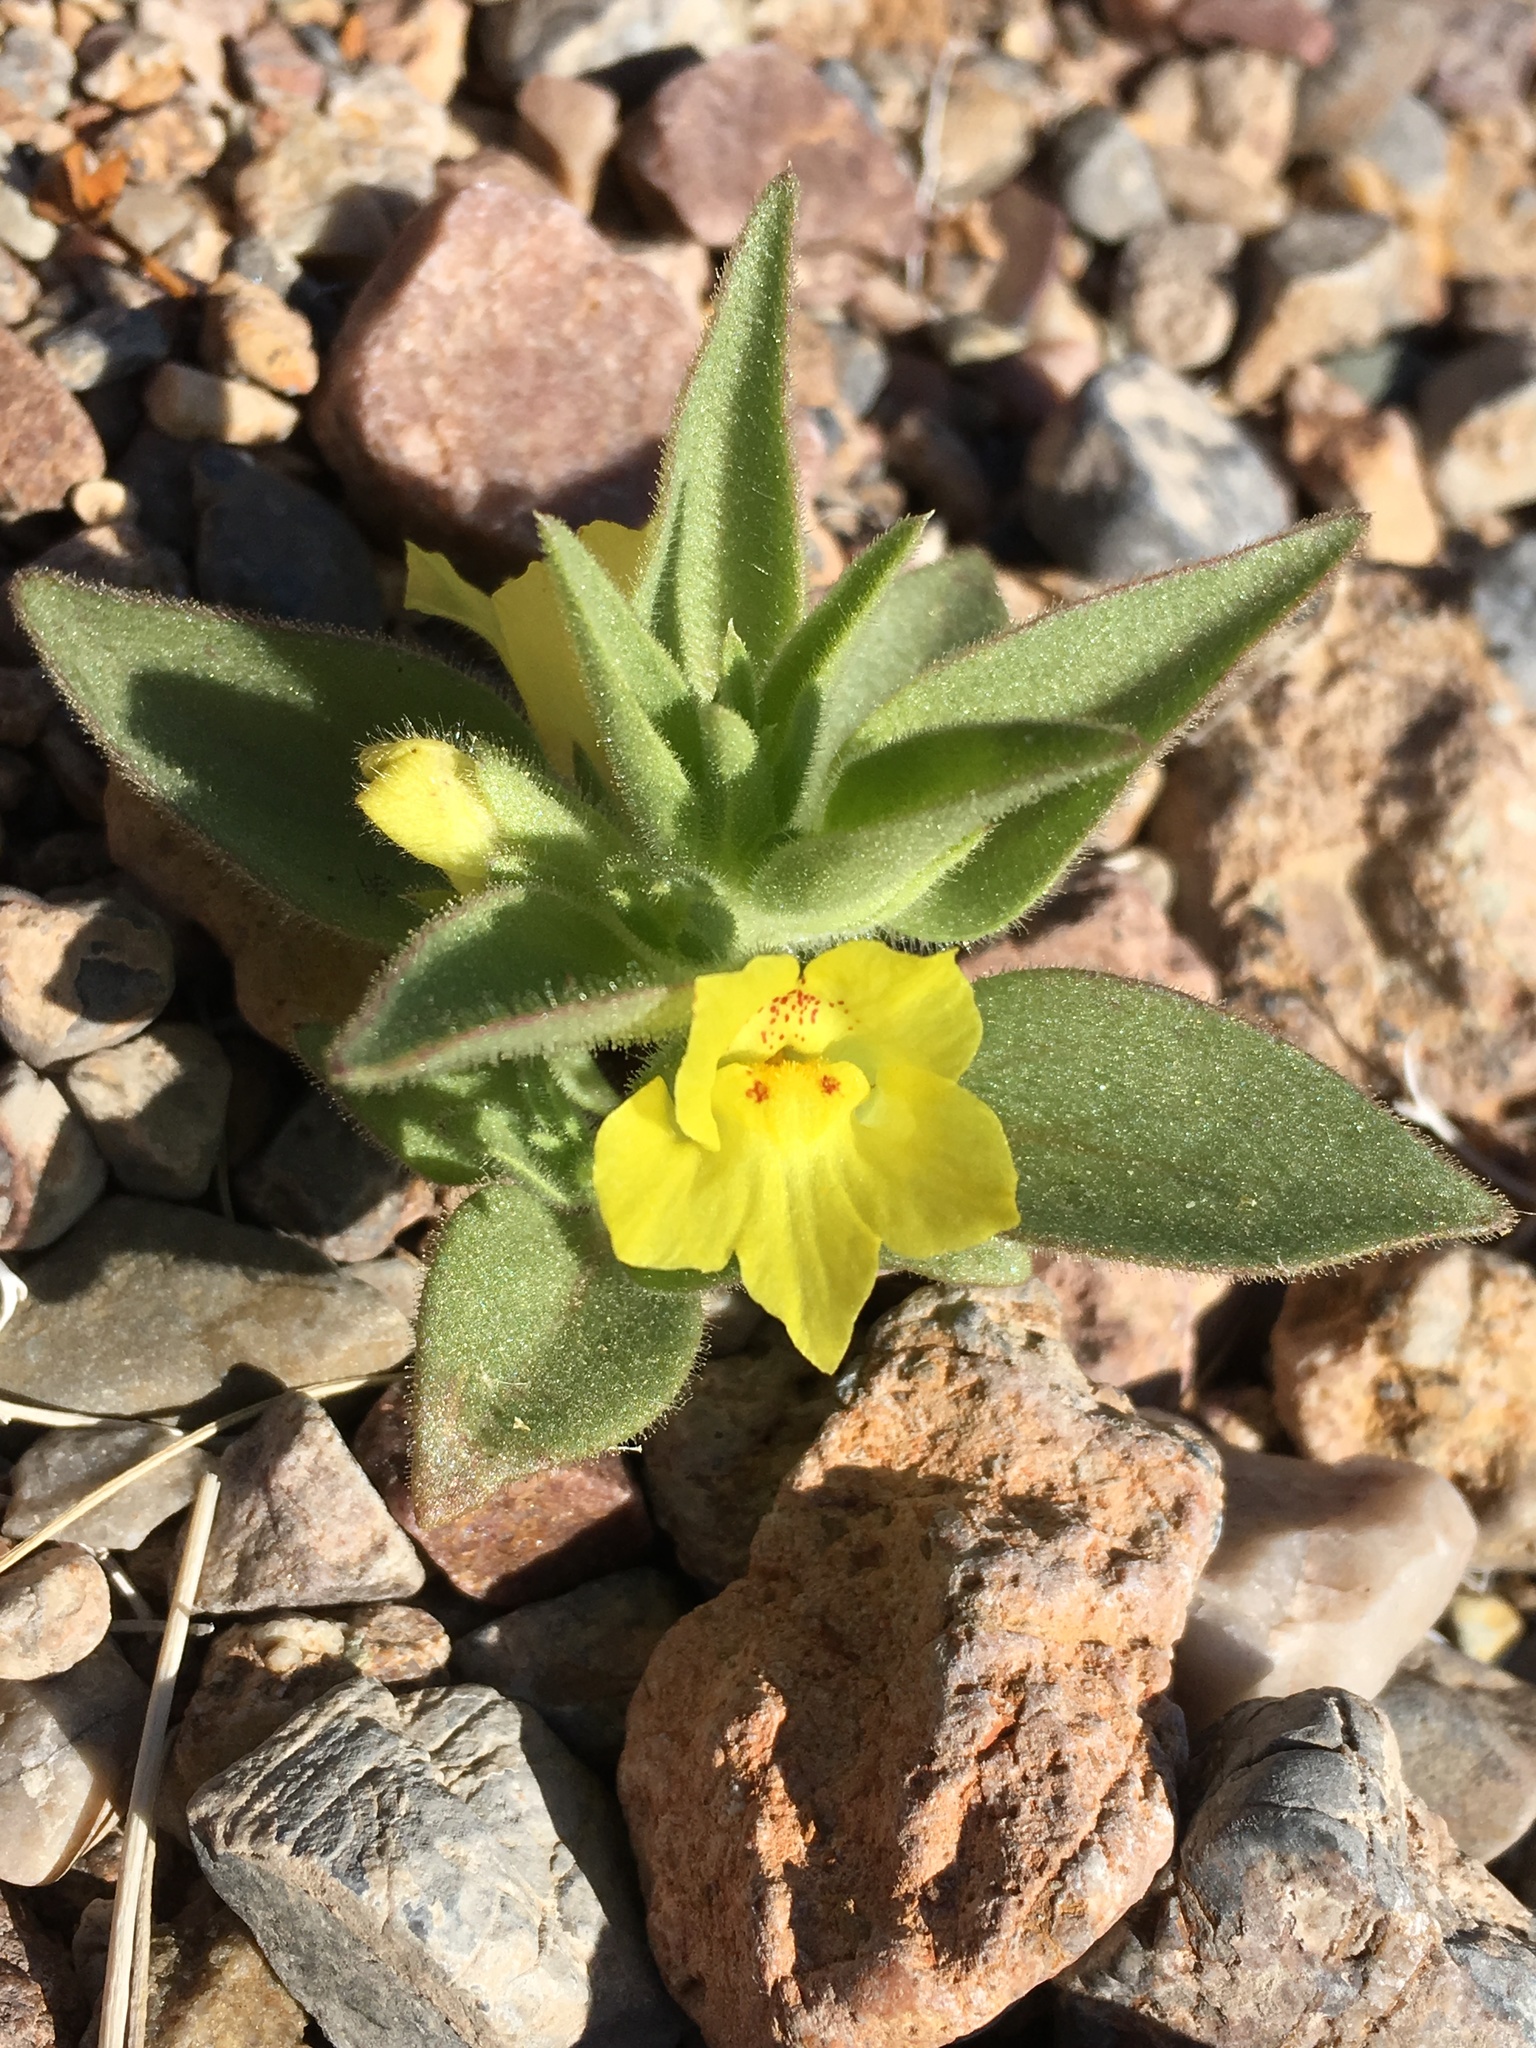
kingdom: Plantae
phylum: Tracheophyta
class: Magnoliopsida
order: Lamiales
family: Plantaginaceae
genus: Mohavea
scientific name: Mohavea breviflora
